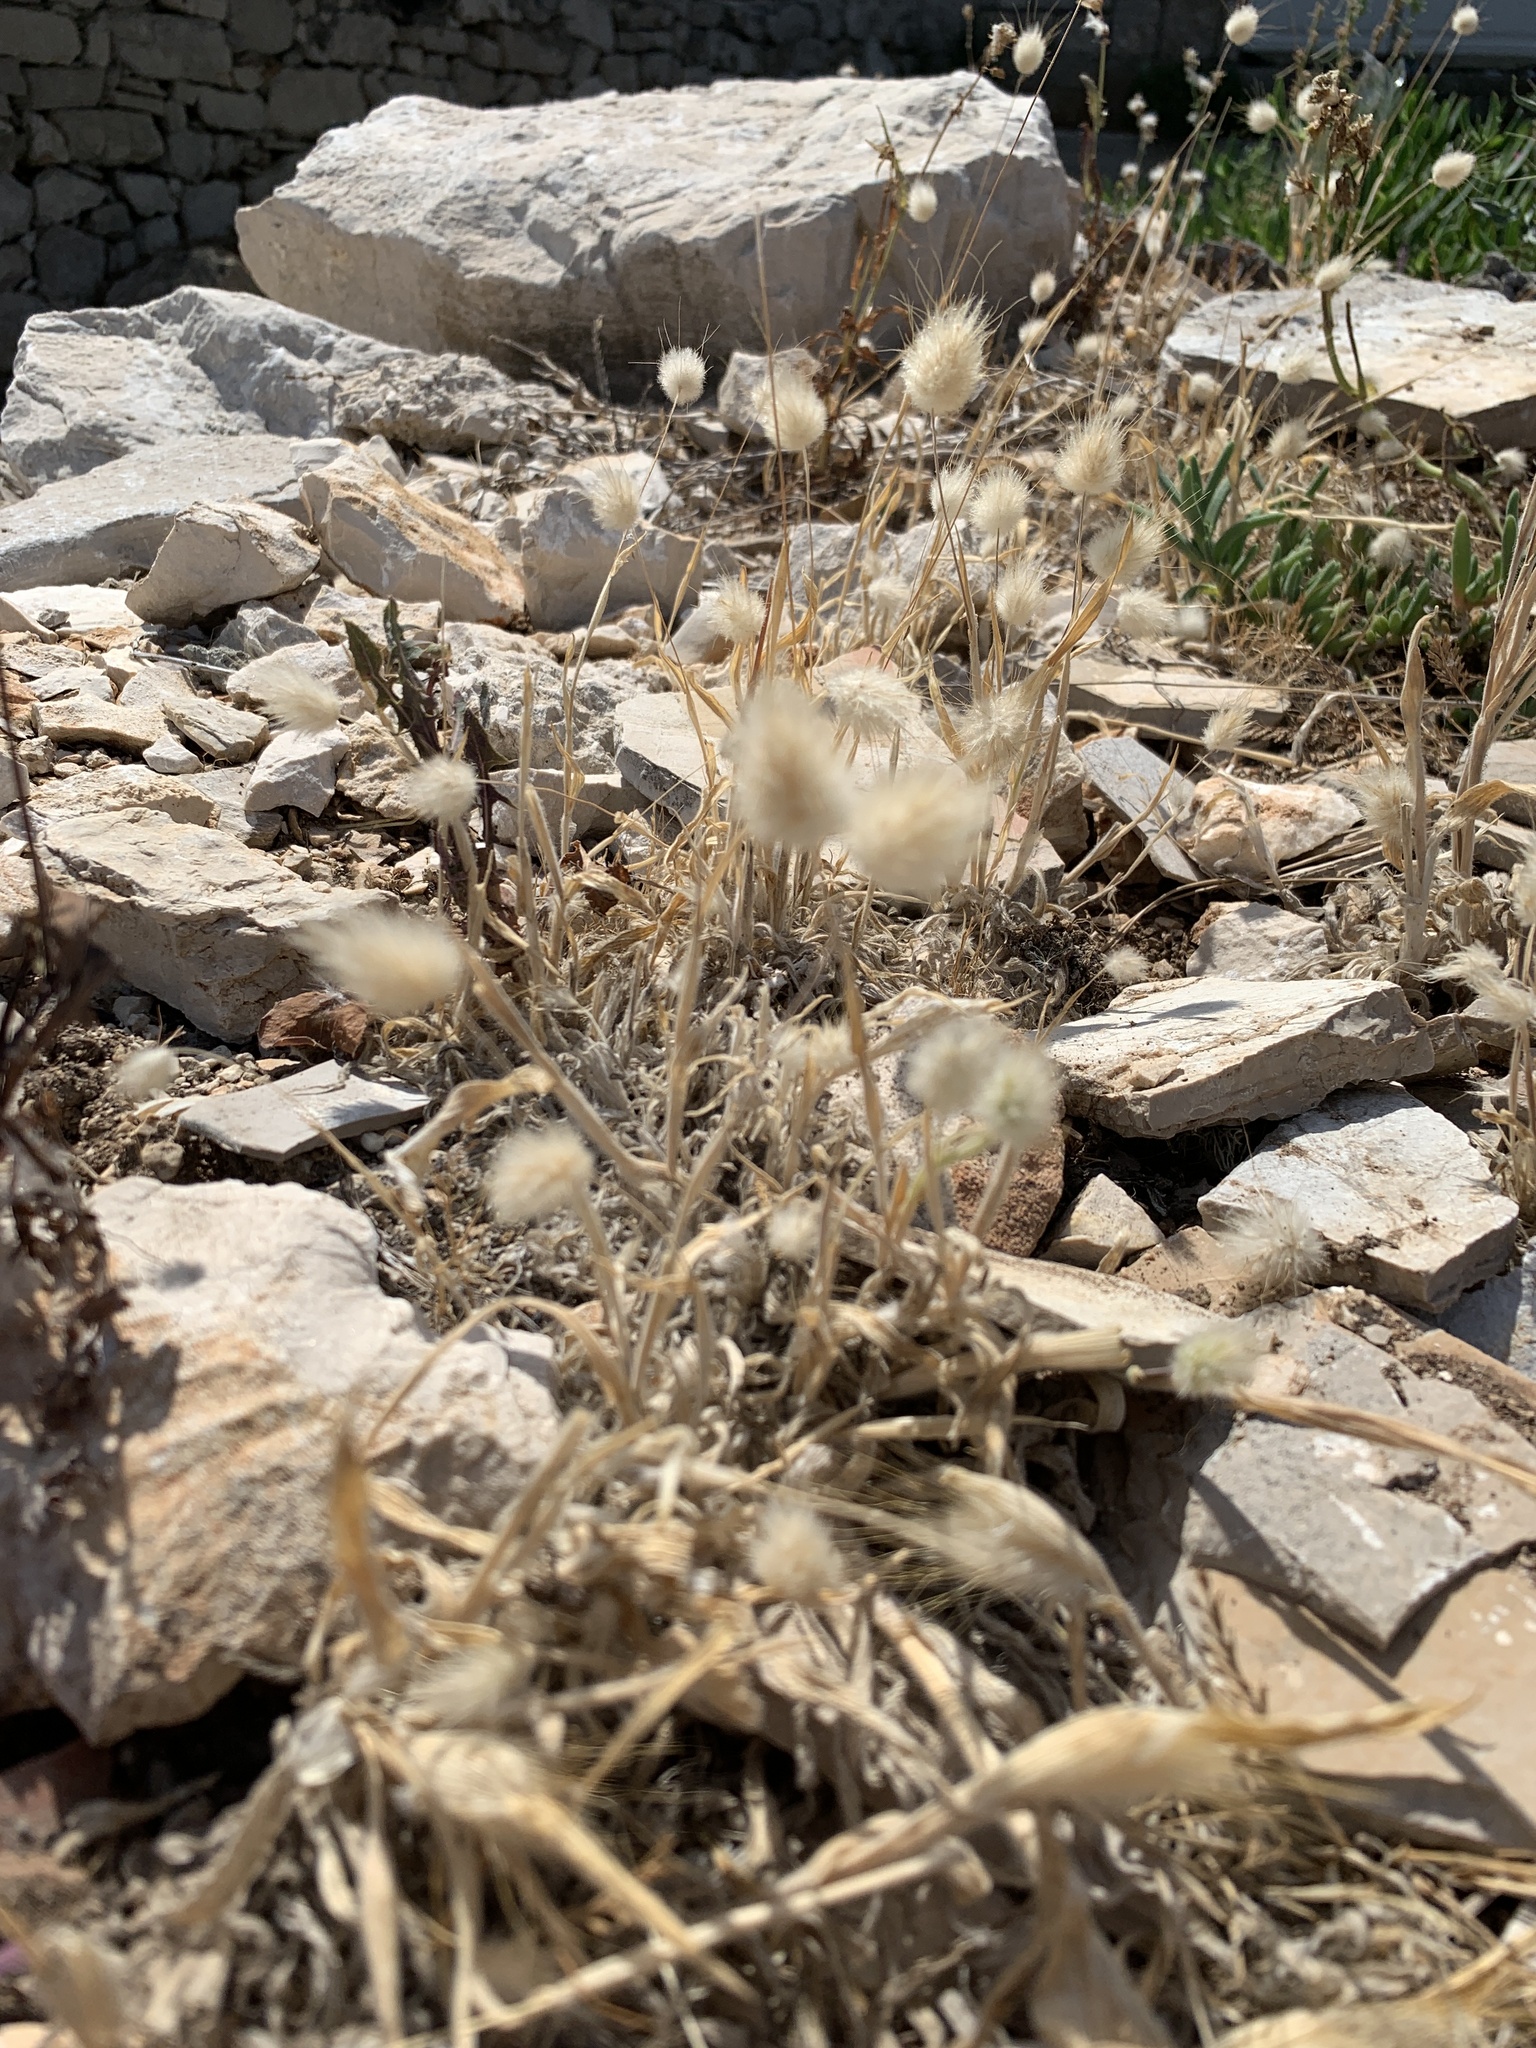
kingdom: Plantae
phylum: Tracheophyta
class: Liliopsida
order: Poales
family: Poaceae
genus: Lagurus
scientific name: Lagurus ovatus
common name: Hare's-tail
